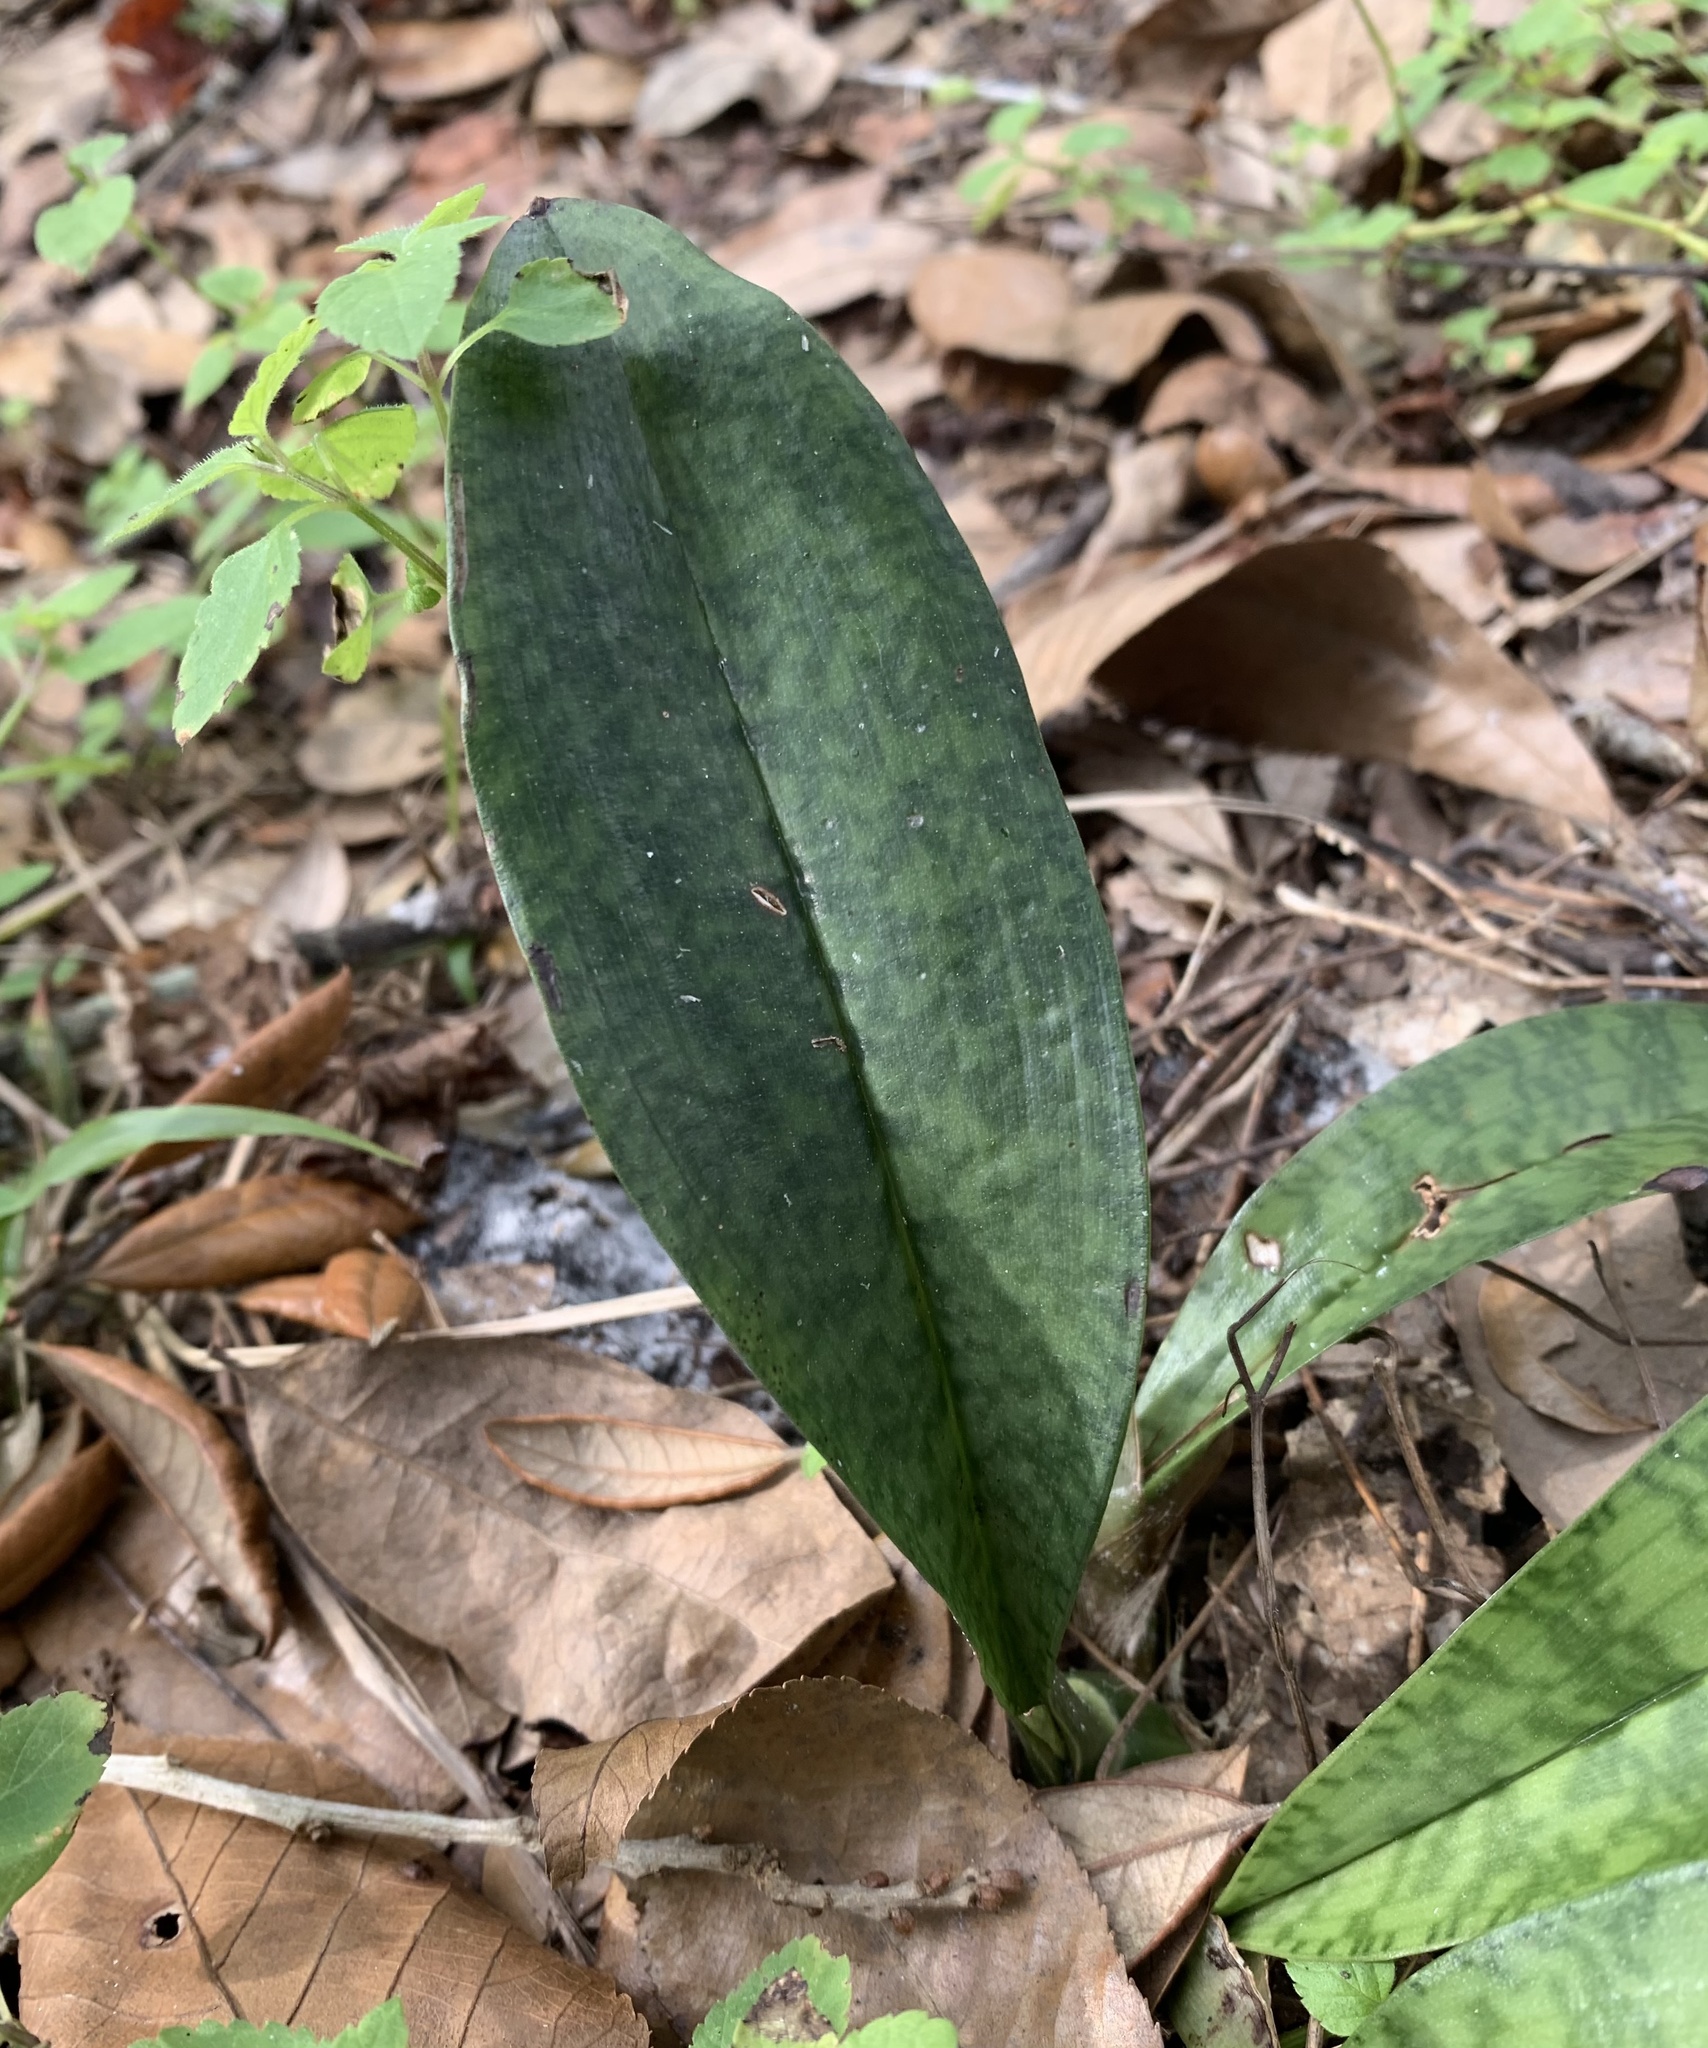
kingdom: Plantae
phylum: Tracheophyta
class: Liliopsida
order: Asparagales
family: Orchidaceae
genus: Eulophia
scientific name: Eulophia maculata
